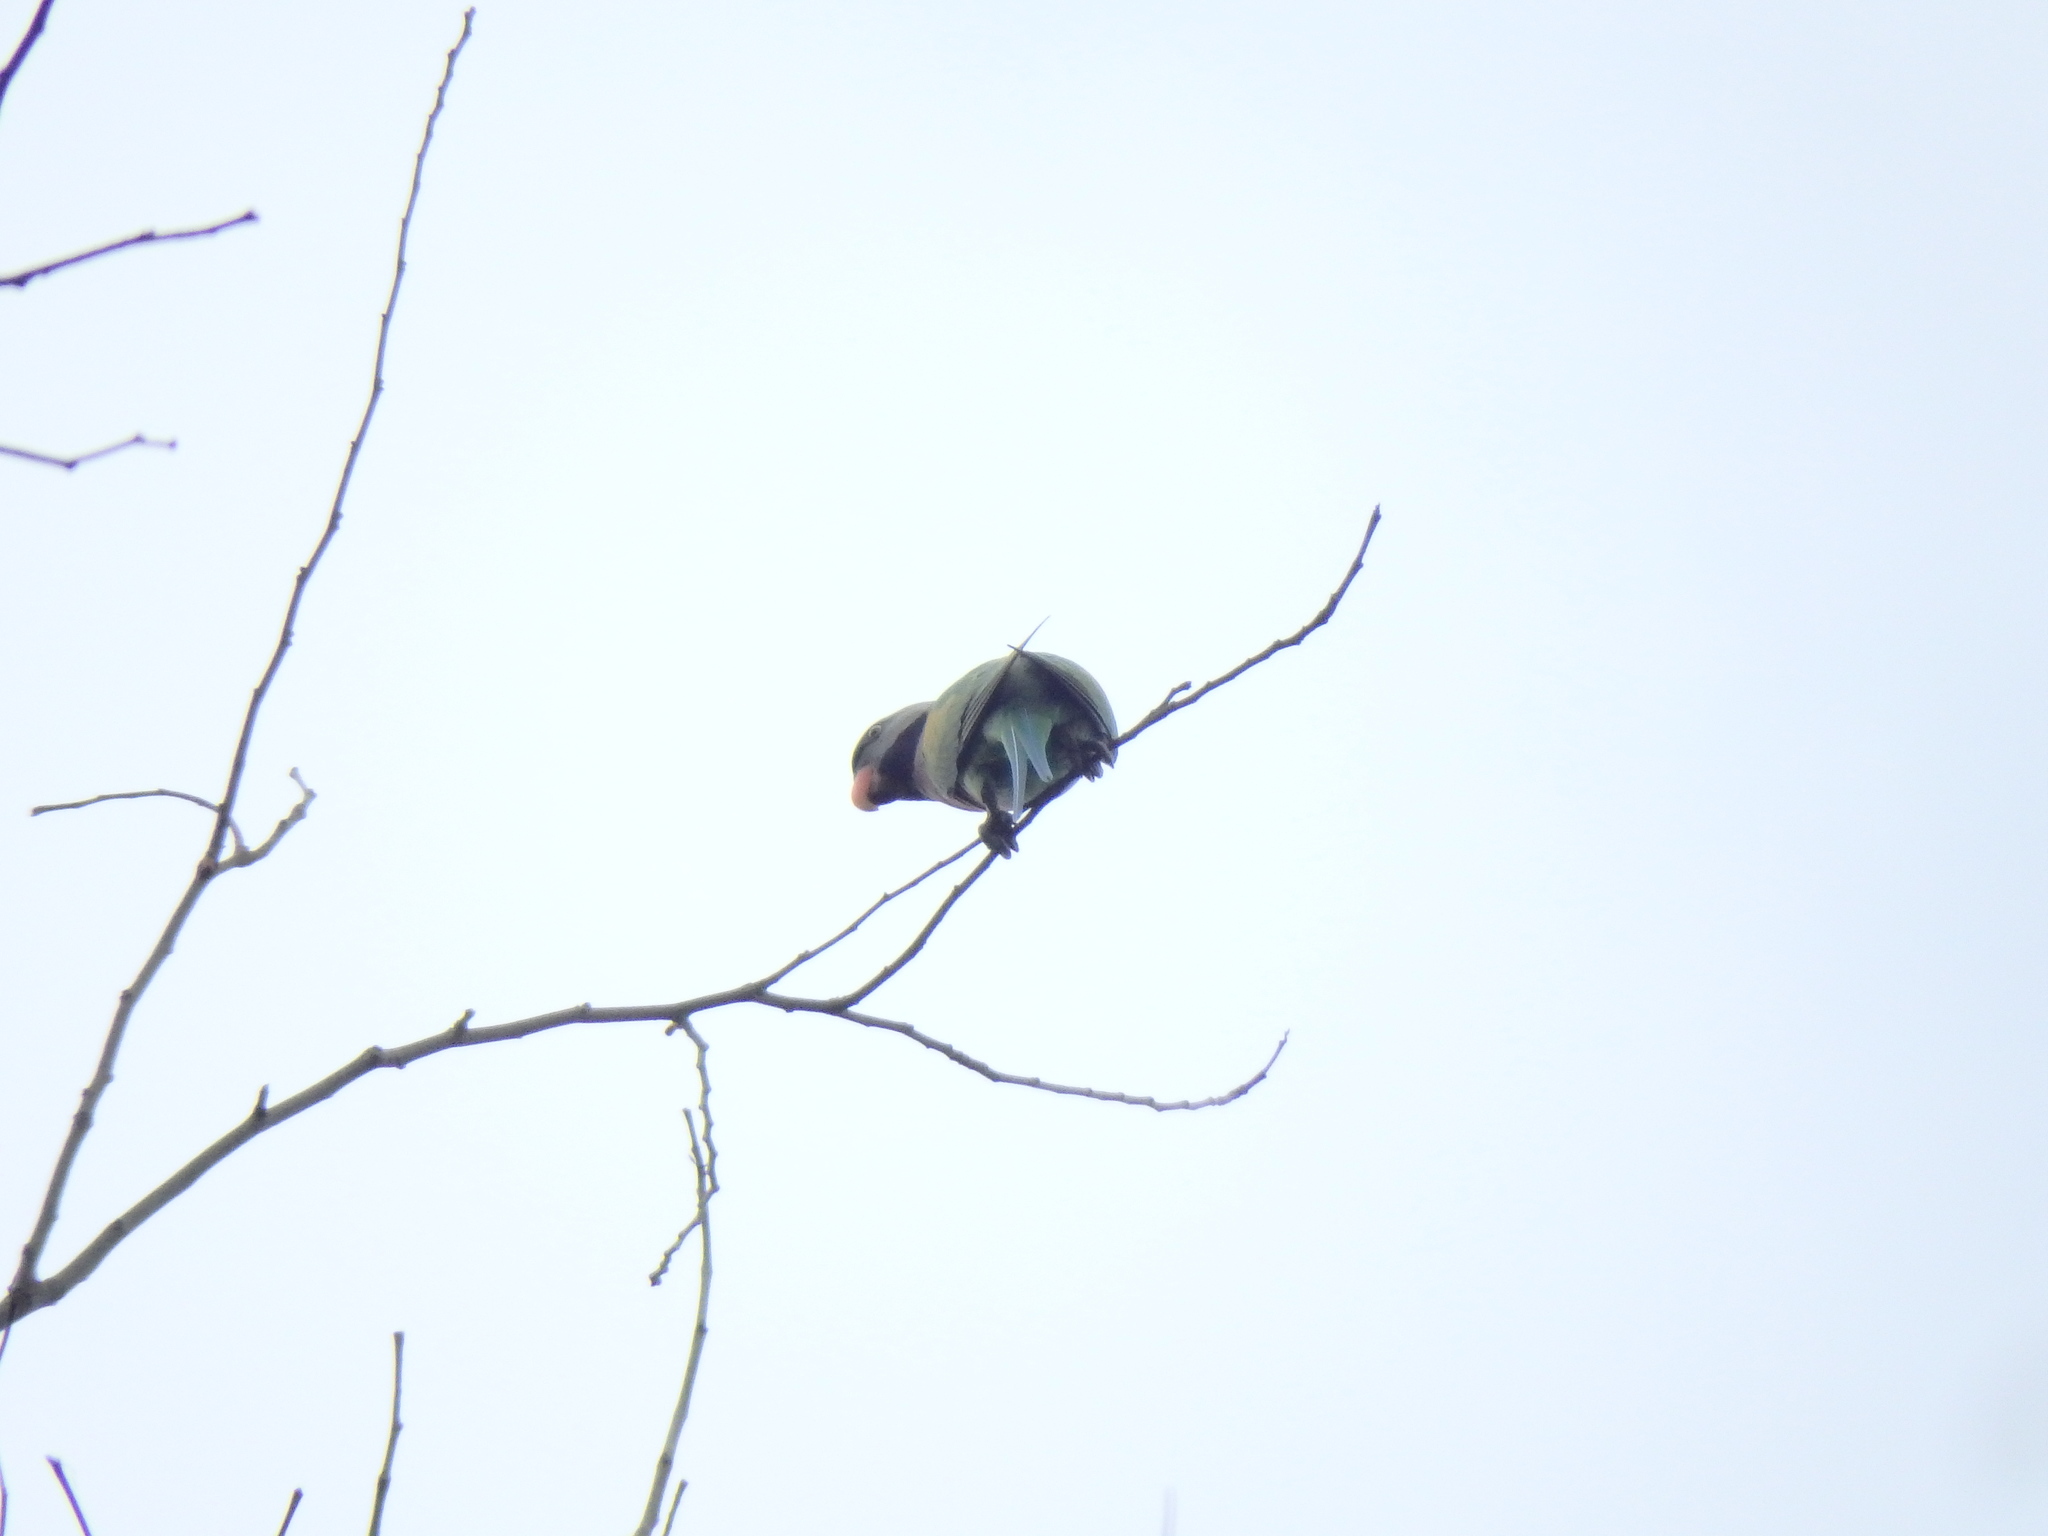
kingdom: Animalia
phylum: Chordata
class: Aves
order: Psittaciformes
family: Psittacidae
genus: Psittacula
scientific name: Psittacula alexandri
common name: Red-breasted parakeet
